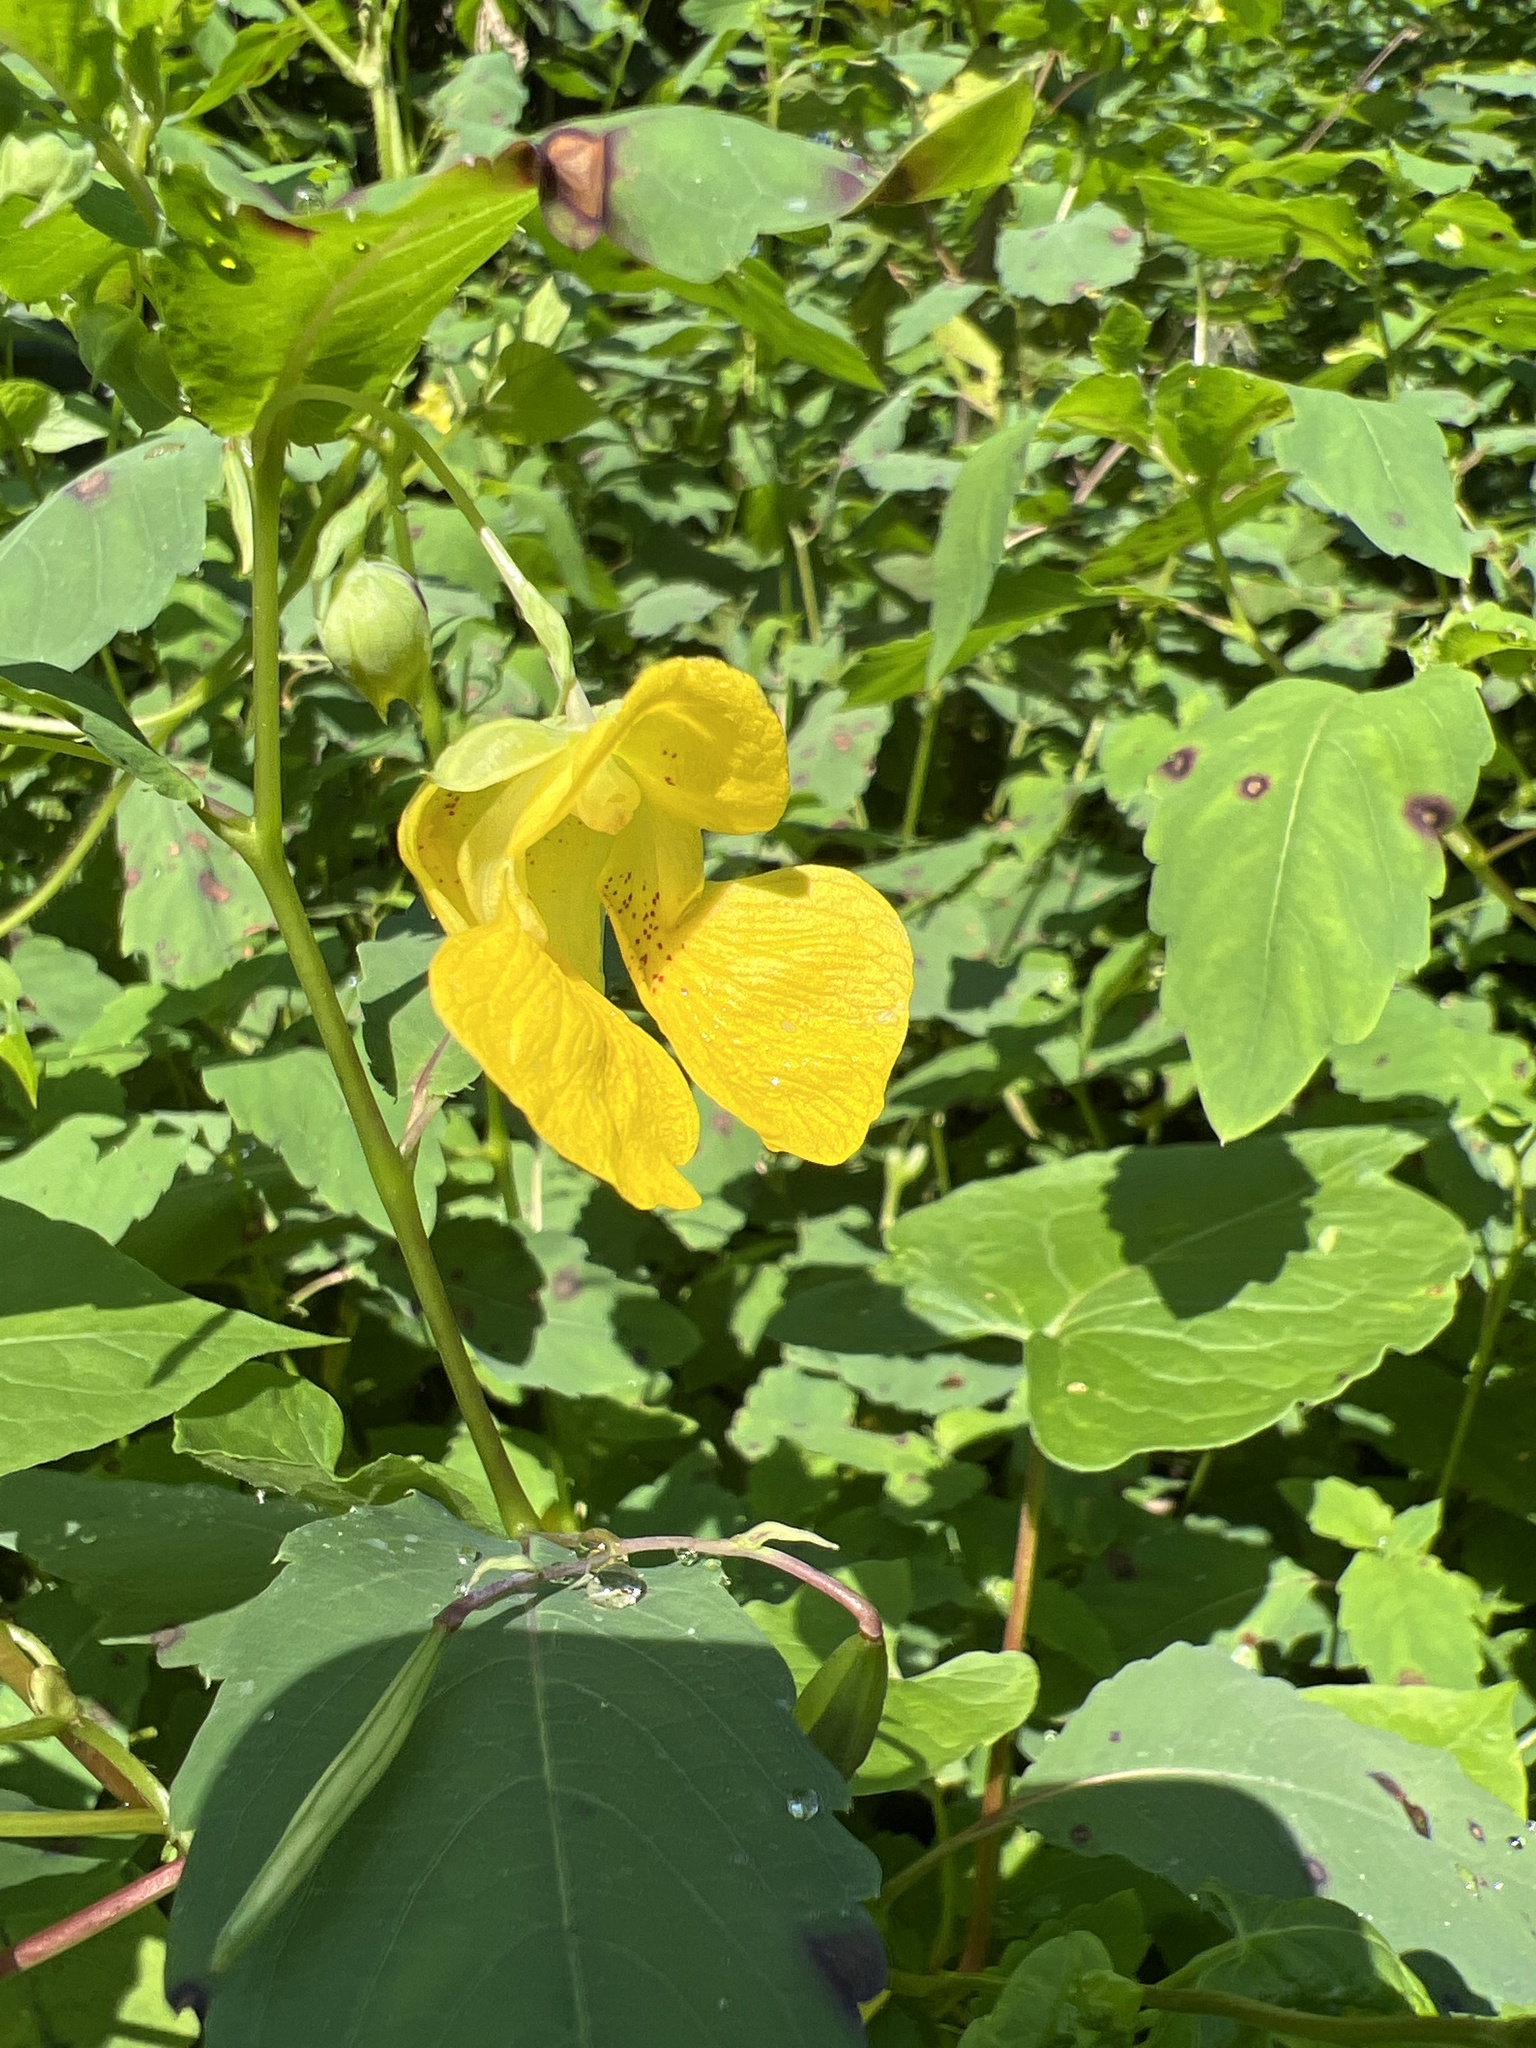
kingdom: Plantae
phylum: Tracheophyta
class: Magnoliopsida
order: Ericales
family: Balsaminaceae
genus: Impatiens
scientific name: Impatiens pallida
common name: Pale snapweed
